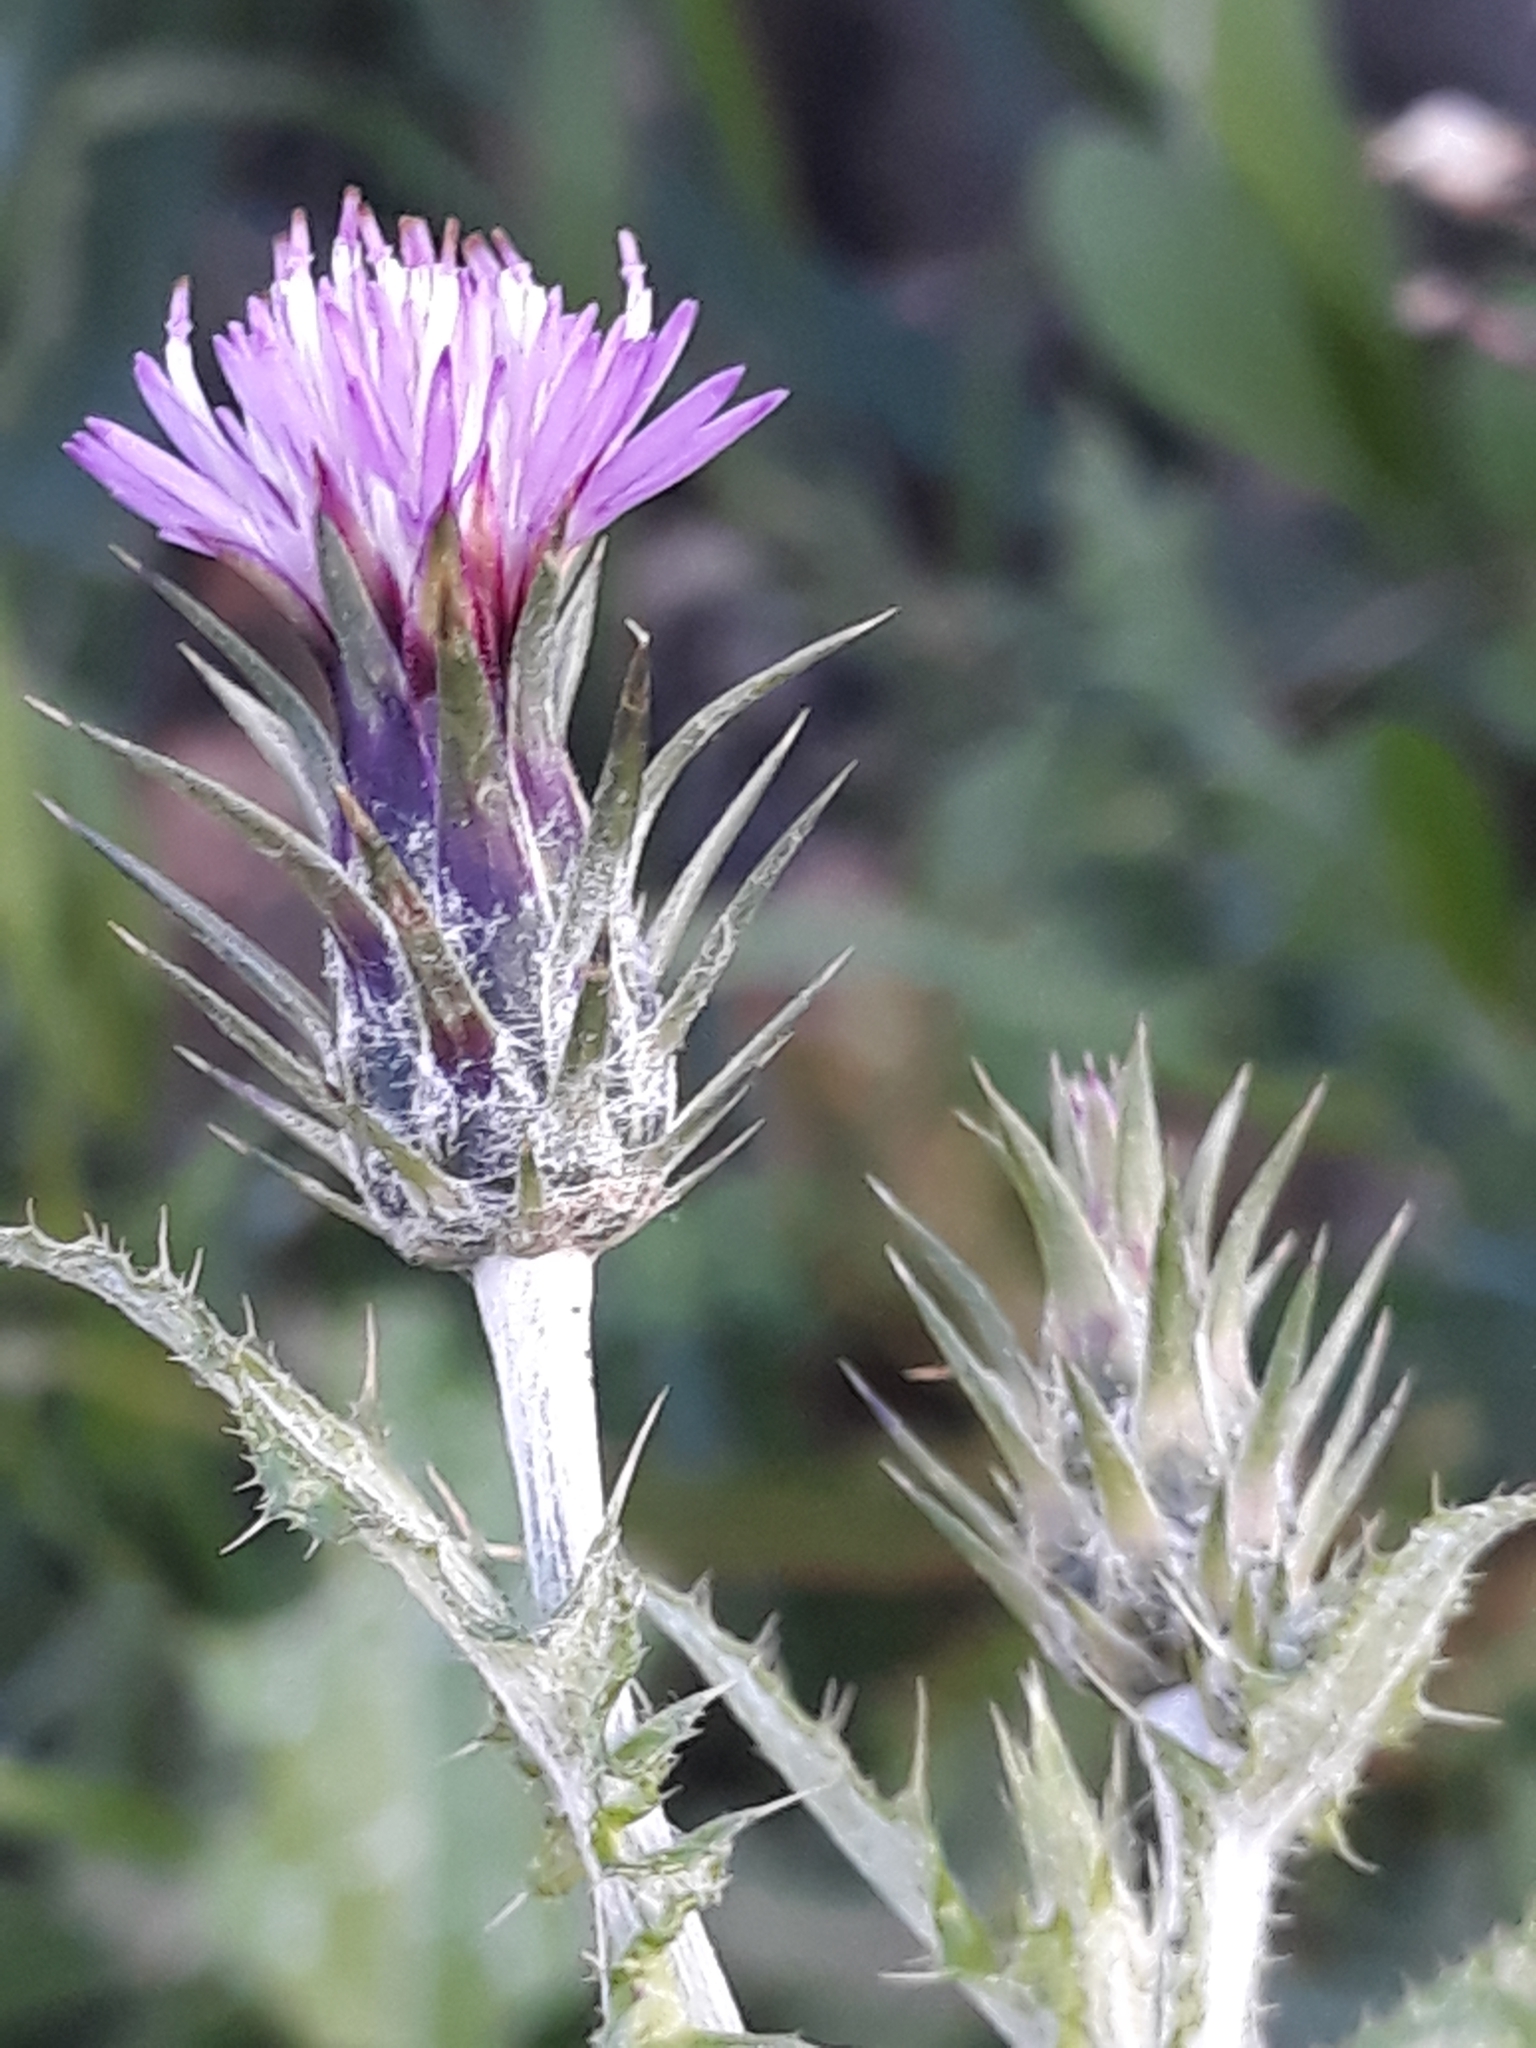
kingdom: Plantae
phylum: Tracheophyta
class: Magnoliopsida
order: Asterales
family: Asteraceae
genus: Carduus
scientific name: Carduus pycnocephalus
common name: Plymouth thistle
